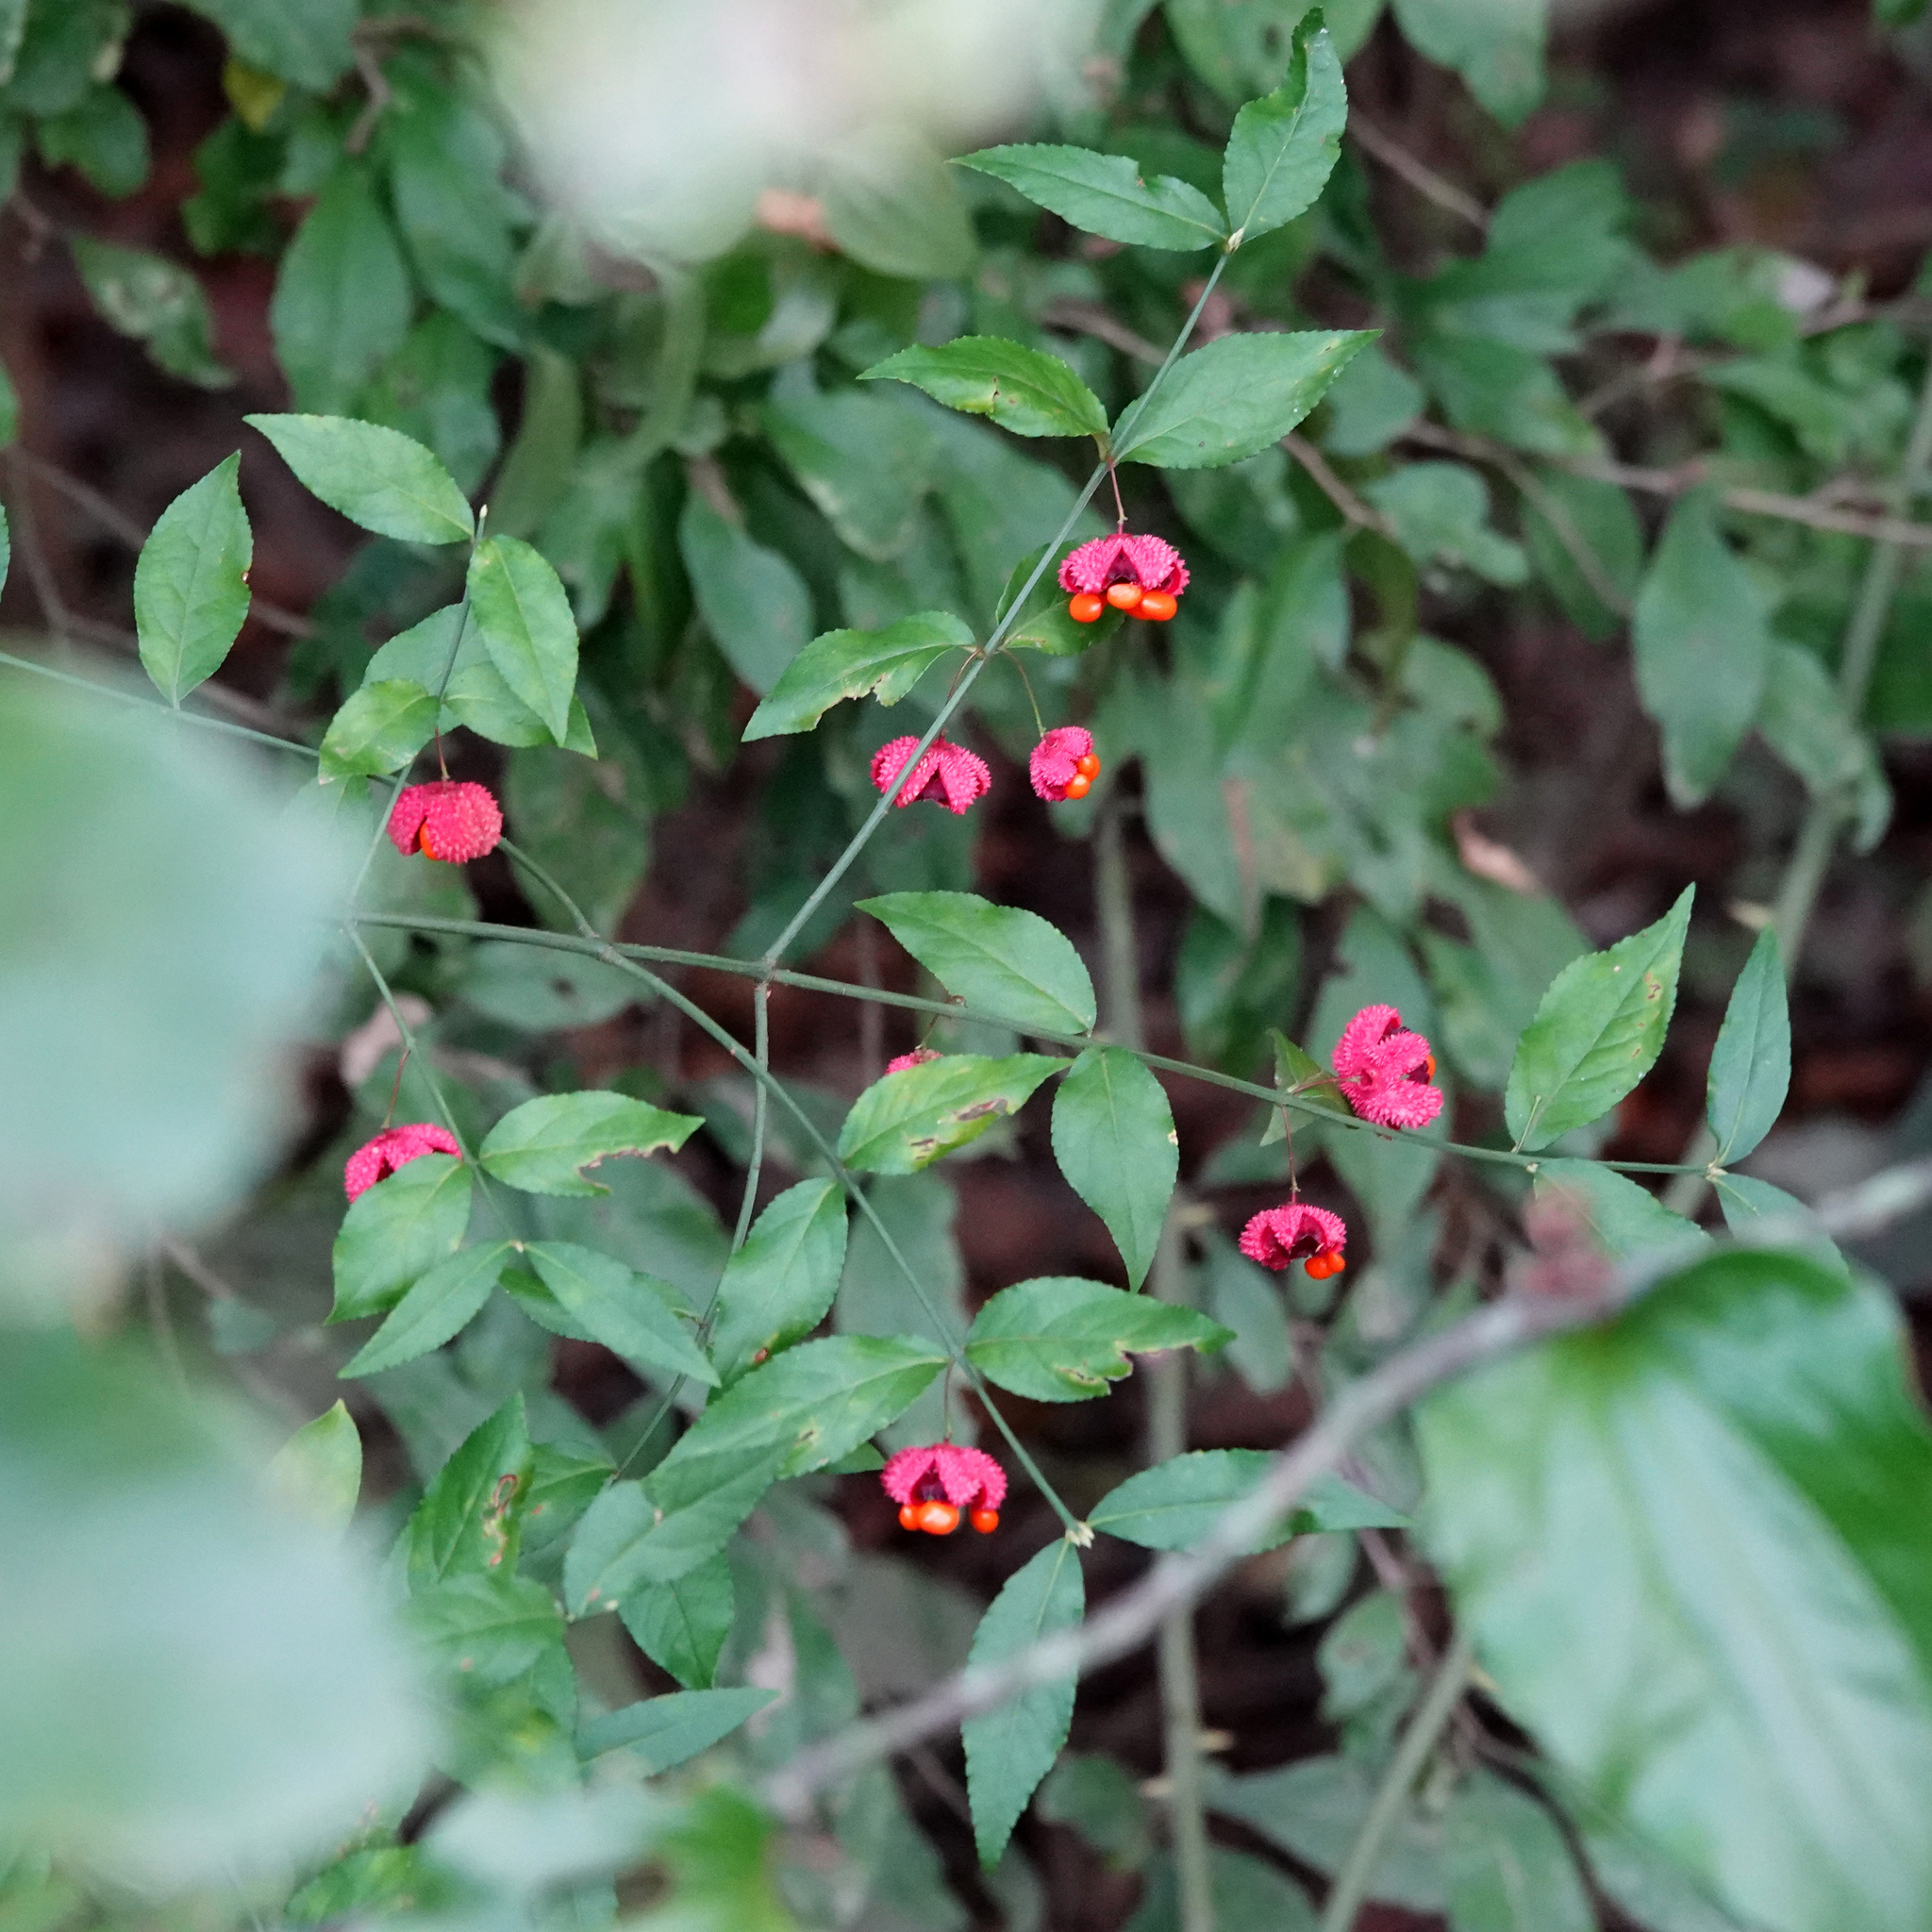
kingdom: Plantae
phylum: Tracheophyta
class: Magnoliopsida
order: Celastrales
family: Celastraceae
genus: Euonymus
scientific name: Euonymus americanus
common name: Bursting-heart
